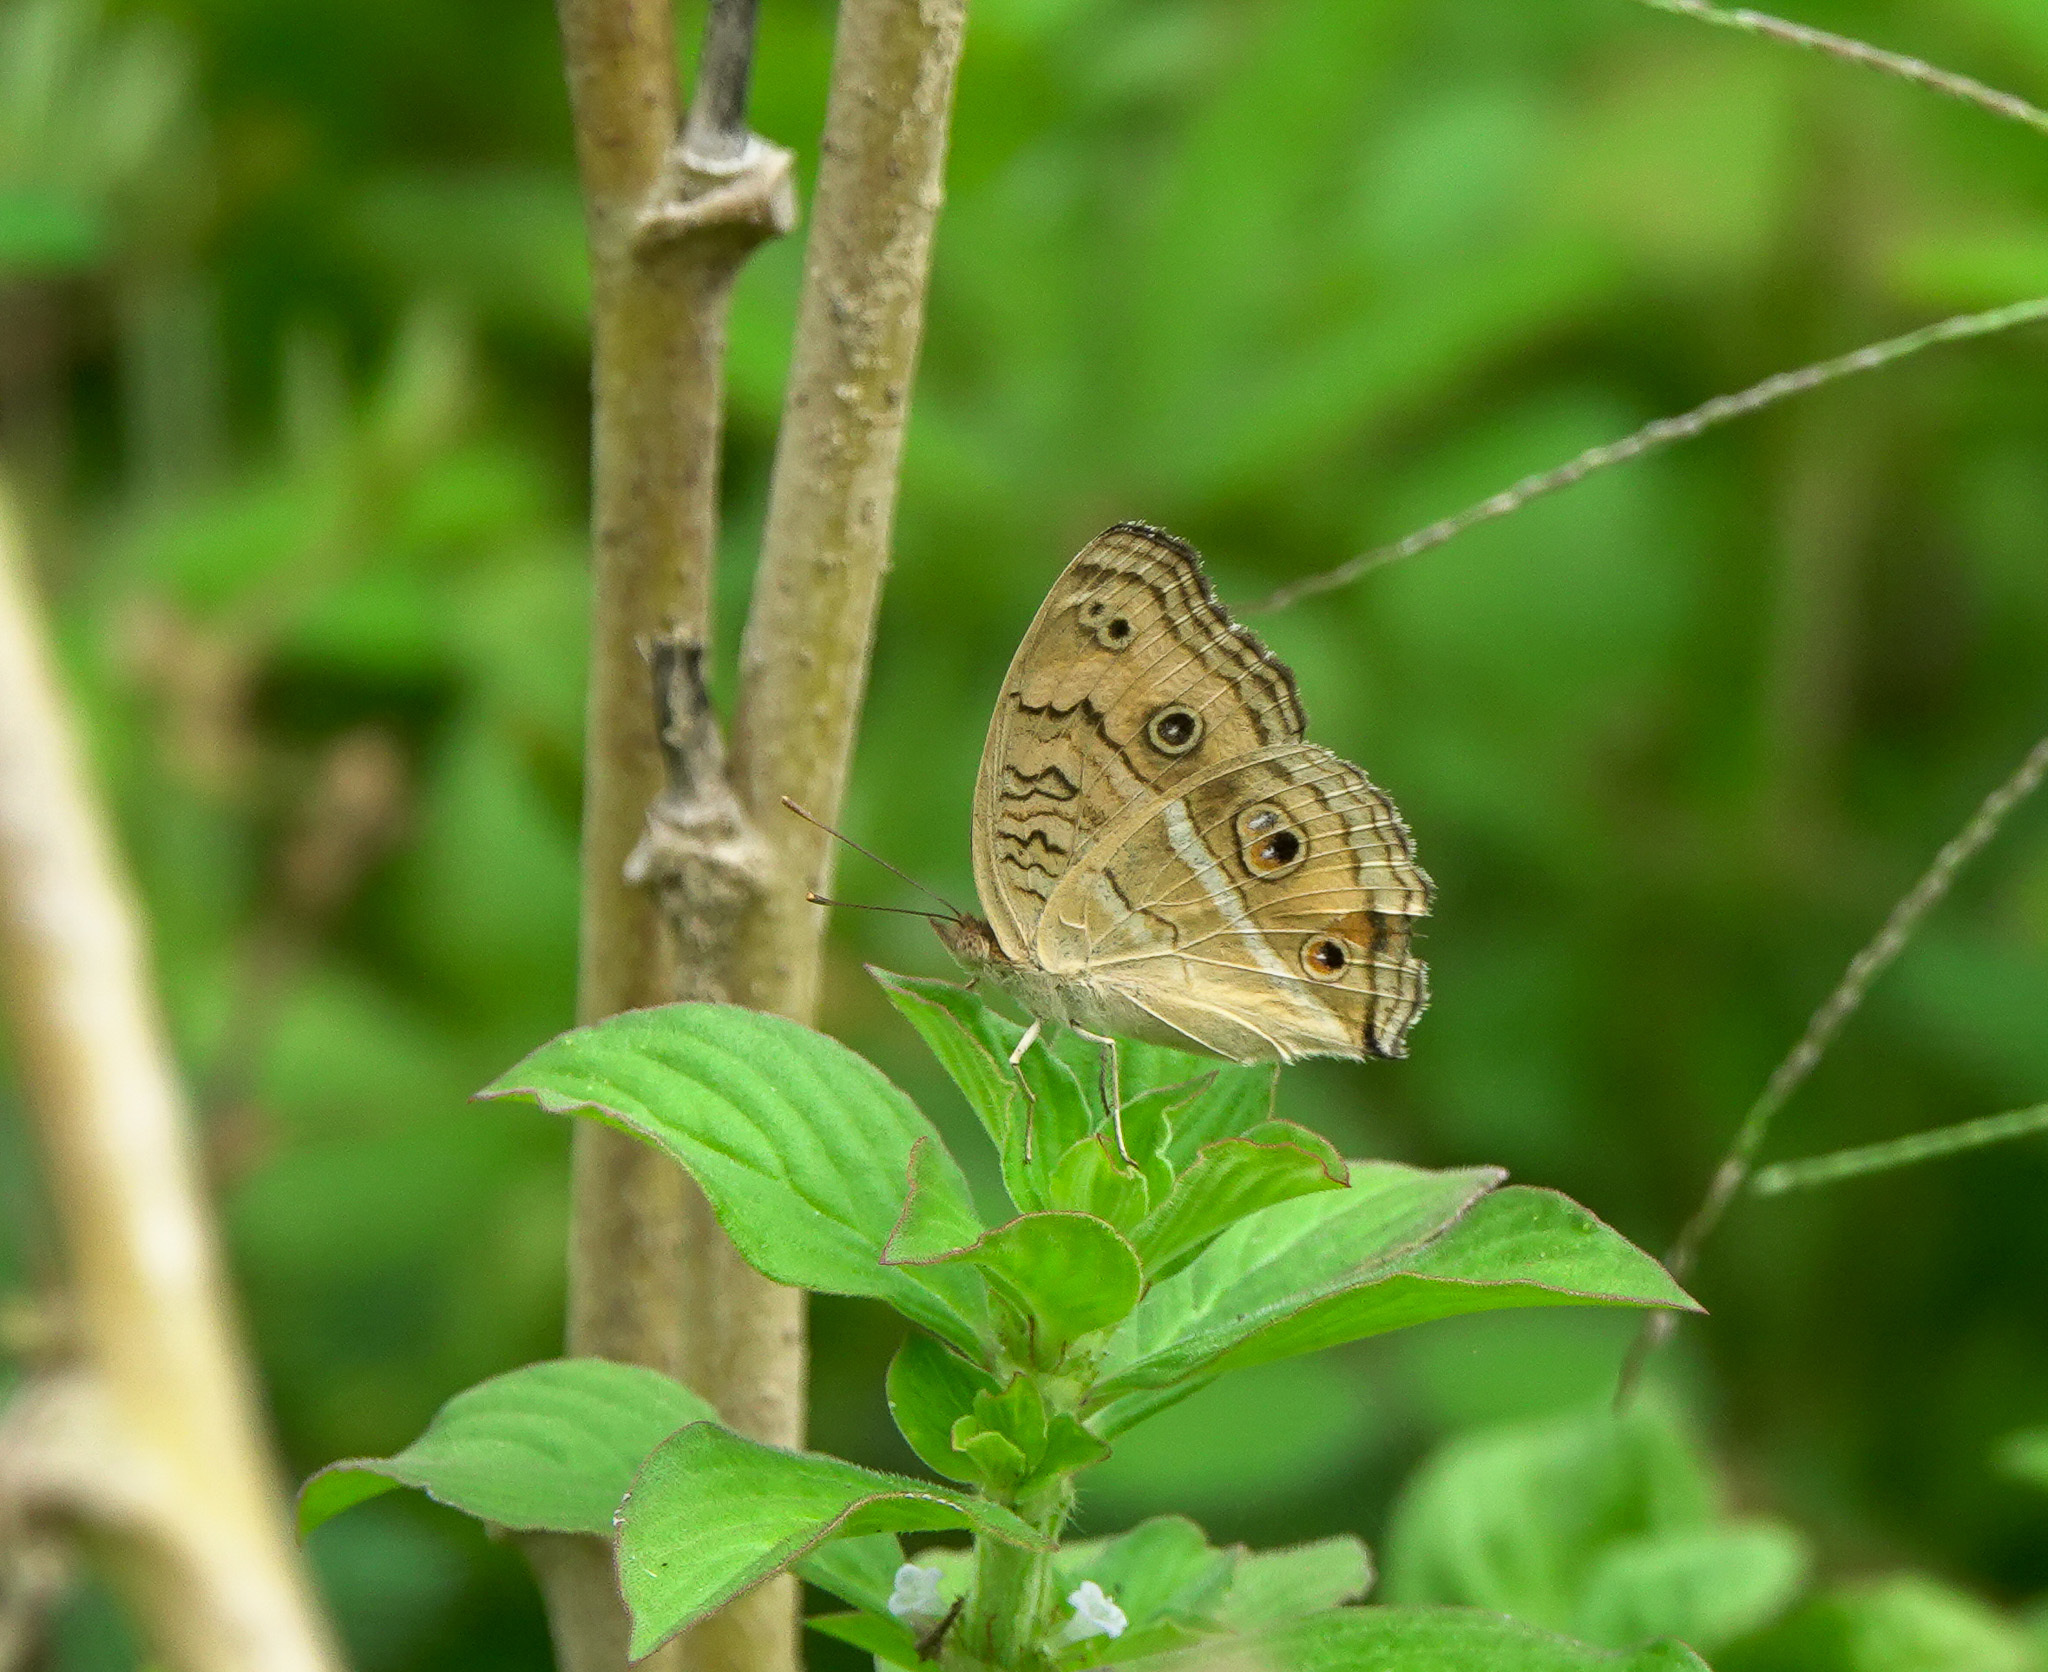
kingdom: Animalia
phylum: Arthropoda
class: Insecta
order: Lepidoptera
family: Nymphalidae
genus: Junonia
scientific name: Junonia almana
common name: Peacock pansy
